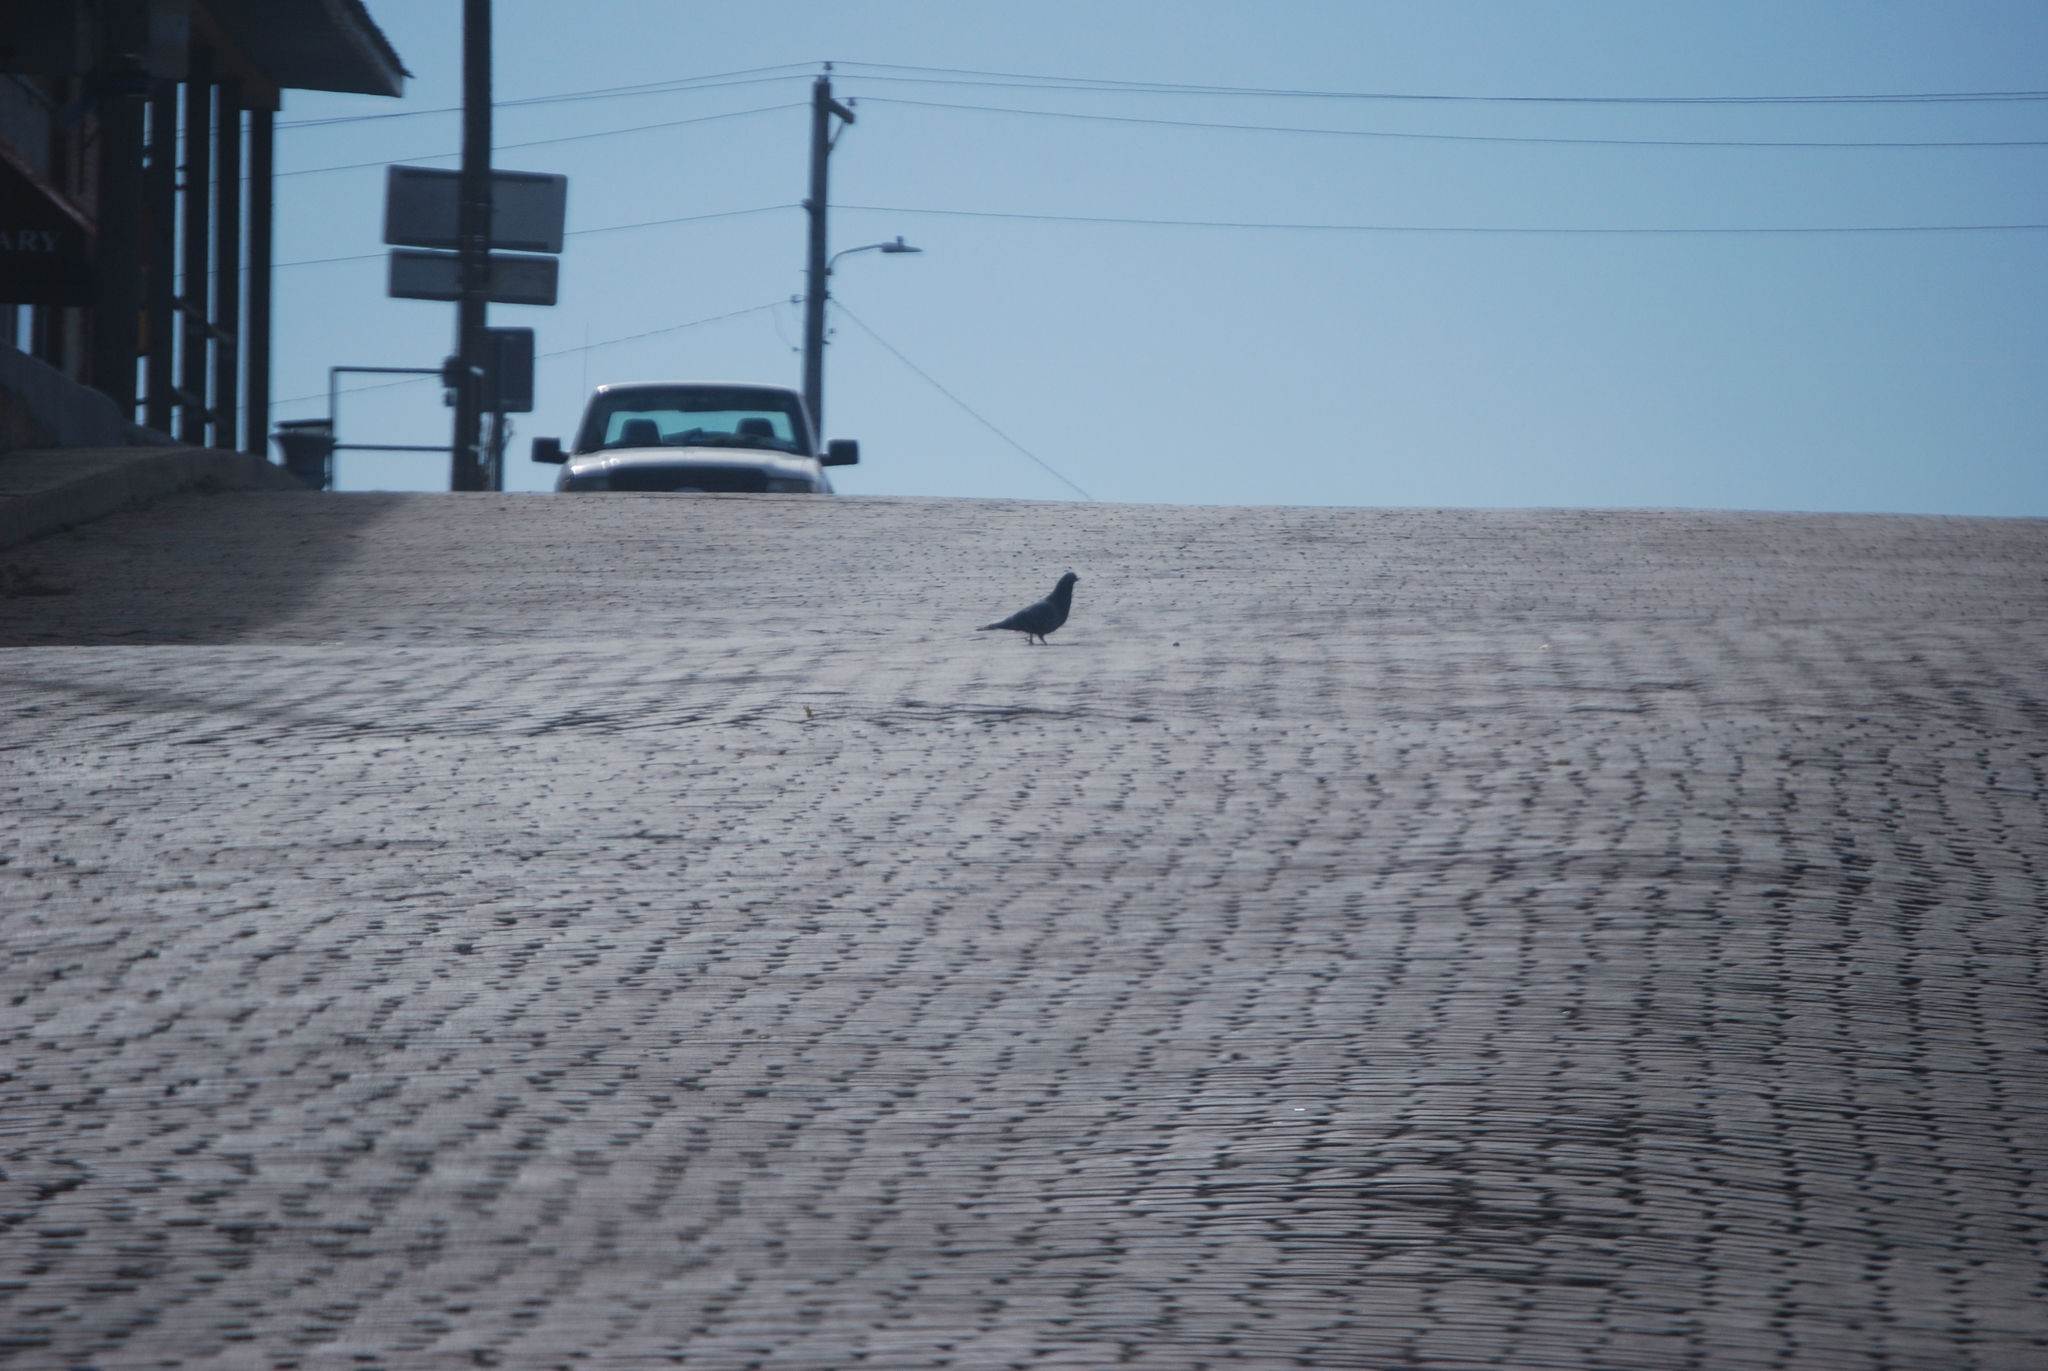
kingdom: Animalia
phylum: Chordata
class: Aves
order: Columbiformes
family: Columbidae
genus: Columba
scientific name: Columba livia
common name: Rock pigeon
